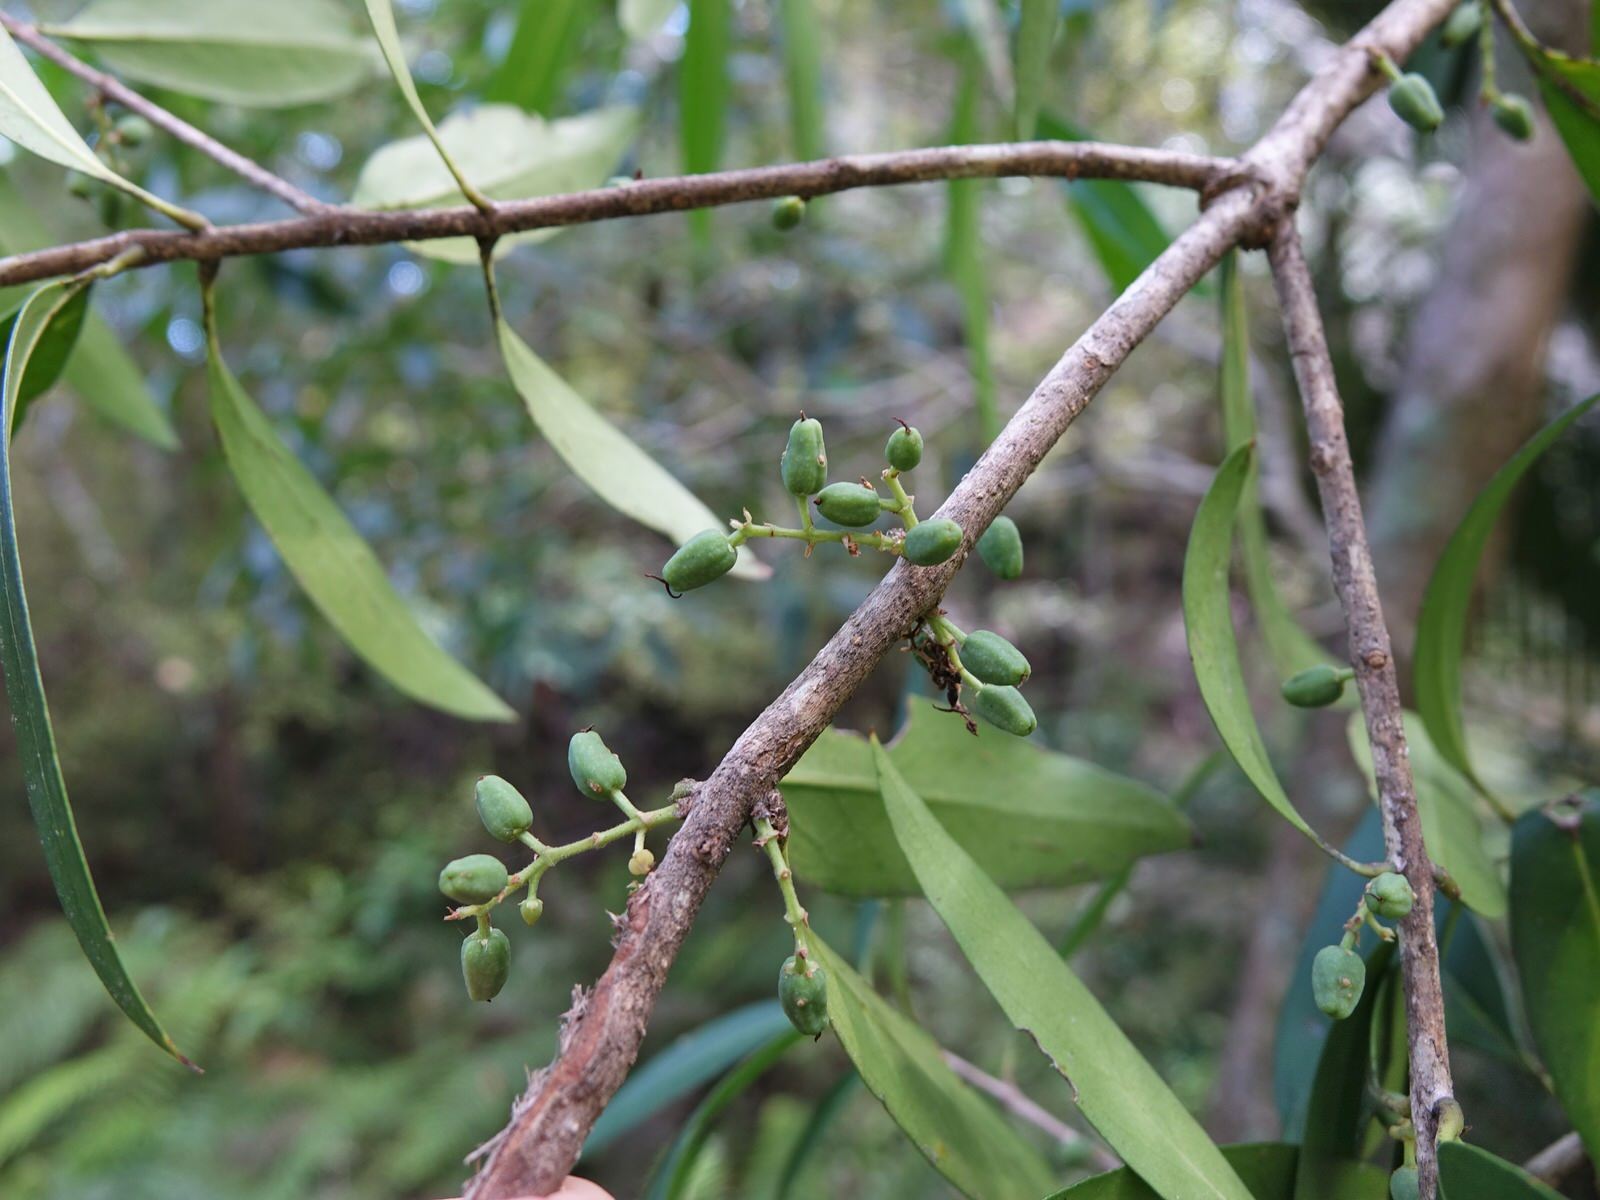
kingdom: Plantae
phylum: Tracheophyta
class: Magnoliopsida
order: Lamiales
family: Oleaceae
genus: Nestegis
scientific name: Nestegis lanceolata
